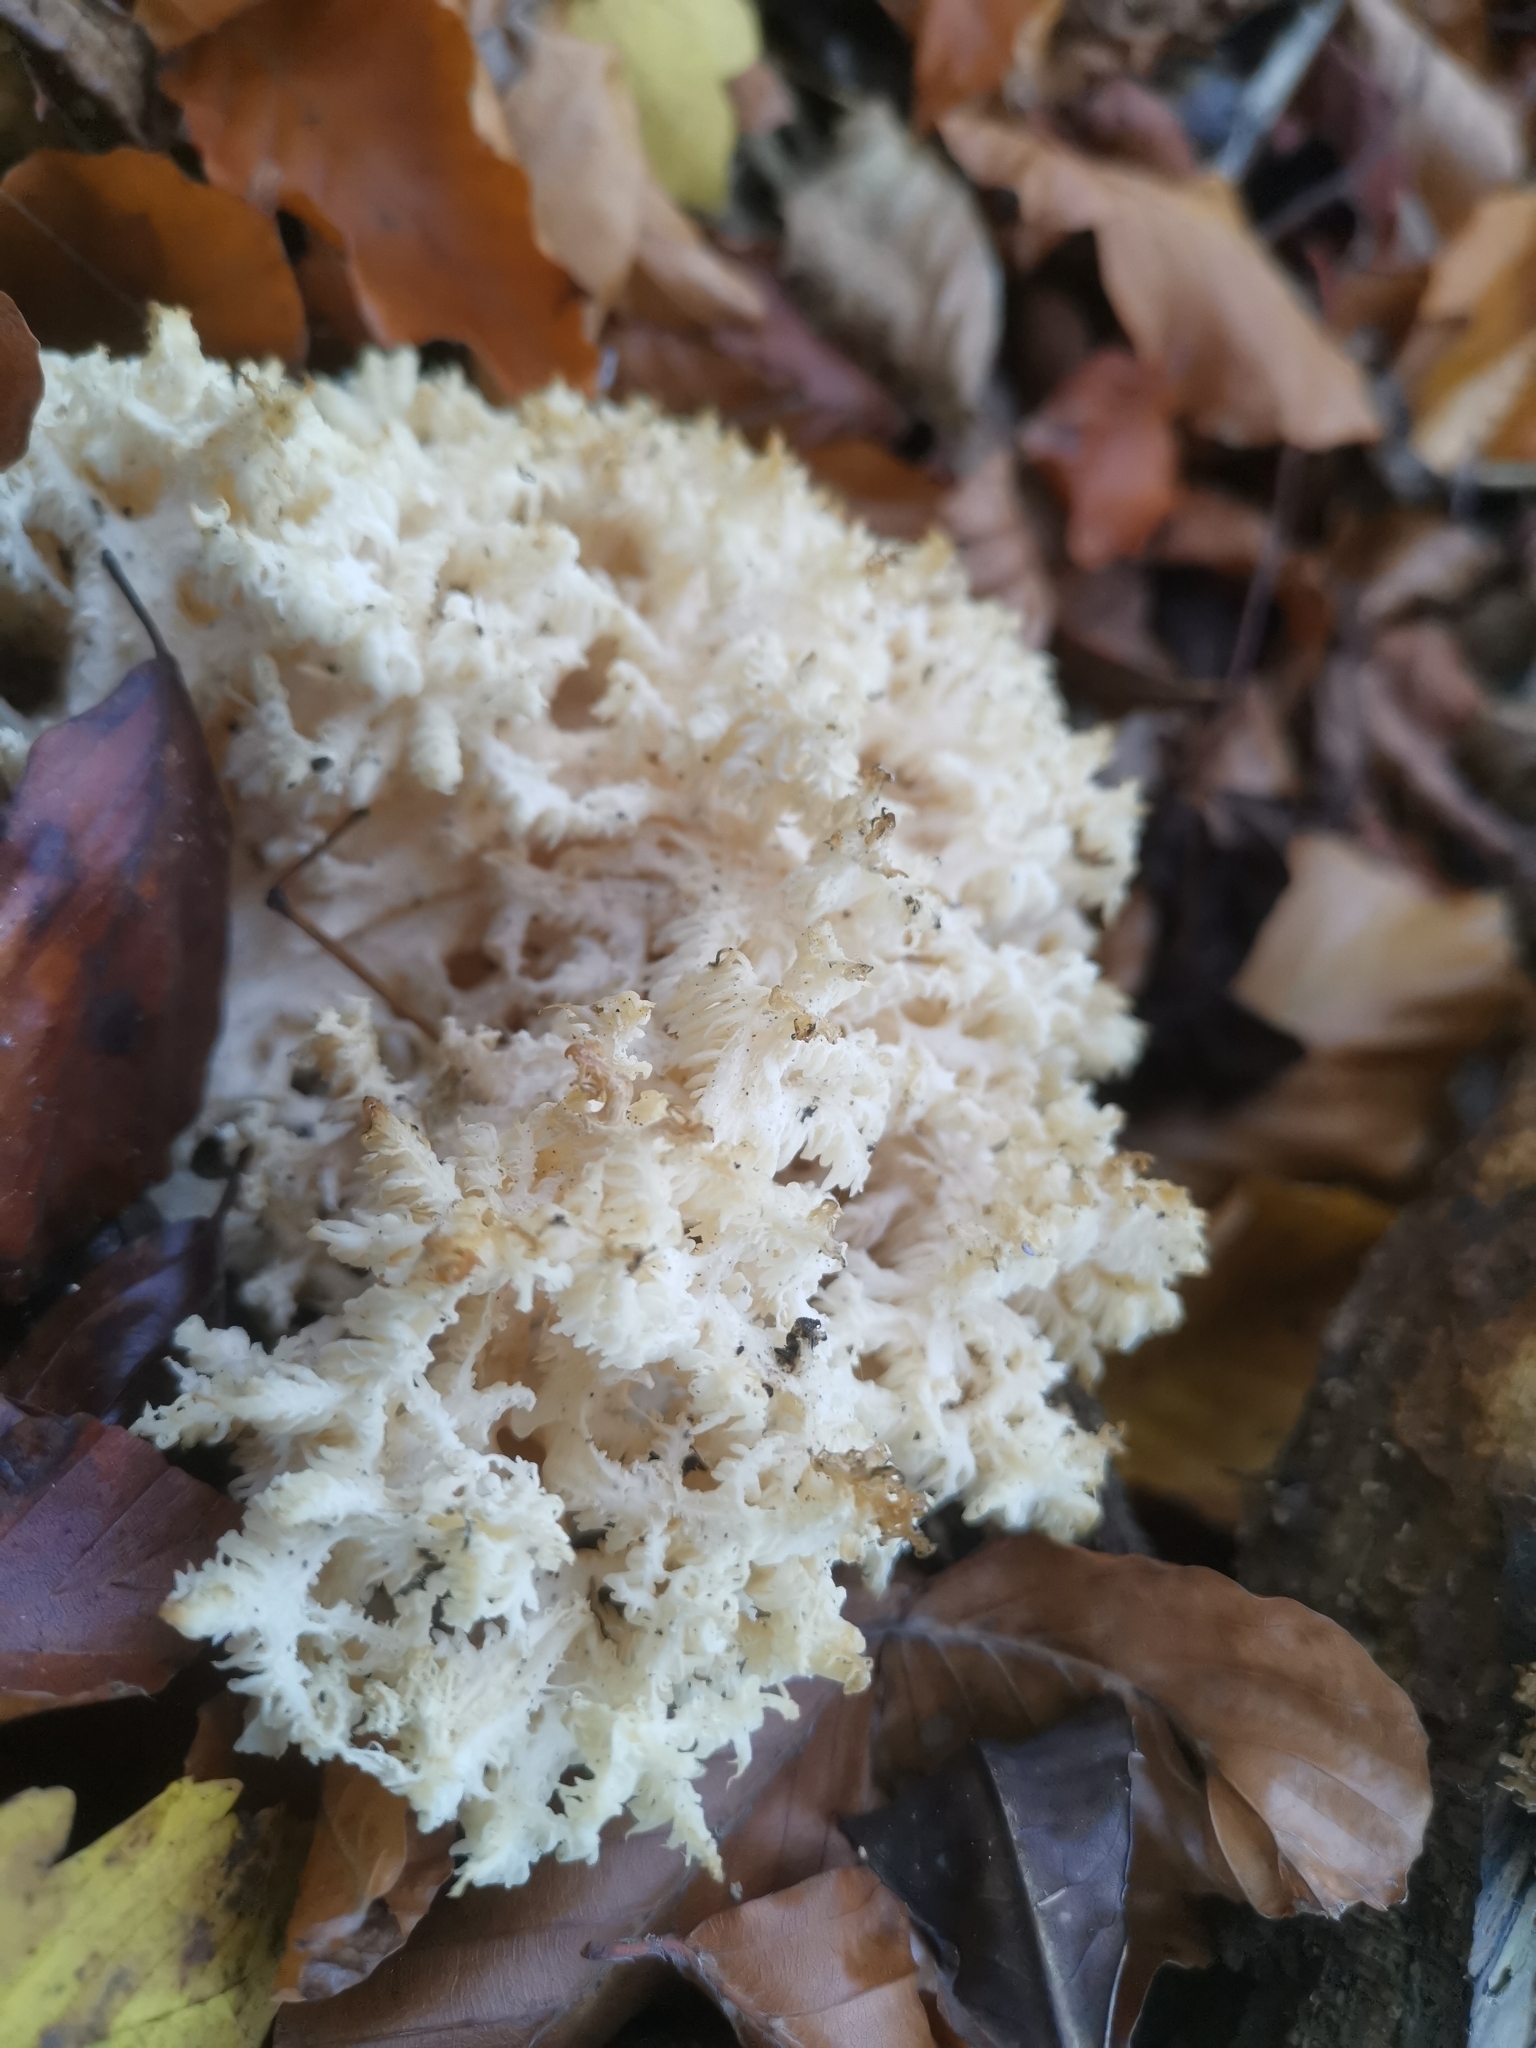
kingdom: Fungi
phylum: Basidiomycota
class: Agaricomycetes
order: Russulales
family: Hericiaceae
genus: Hericium
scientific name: Hericium coralloides
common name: Coral tooth
